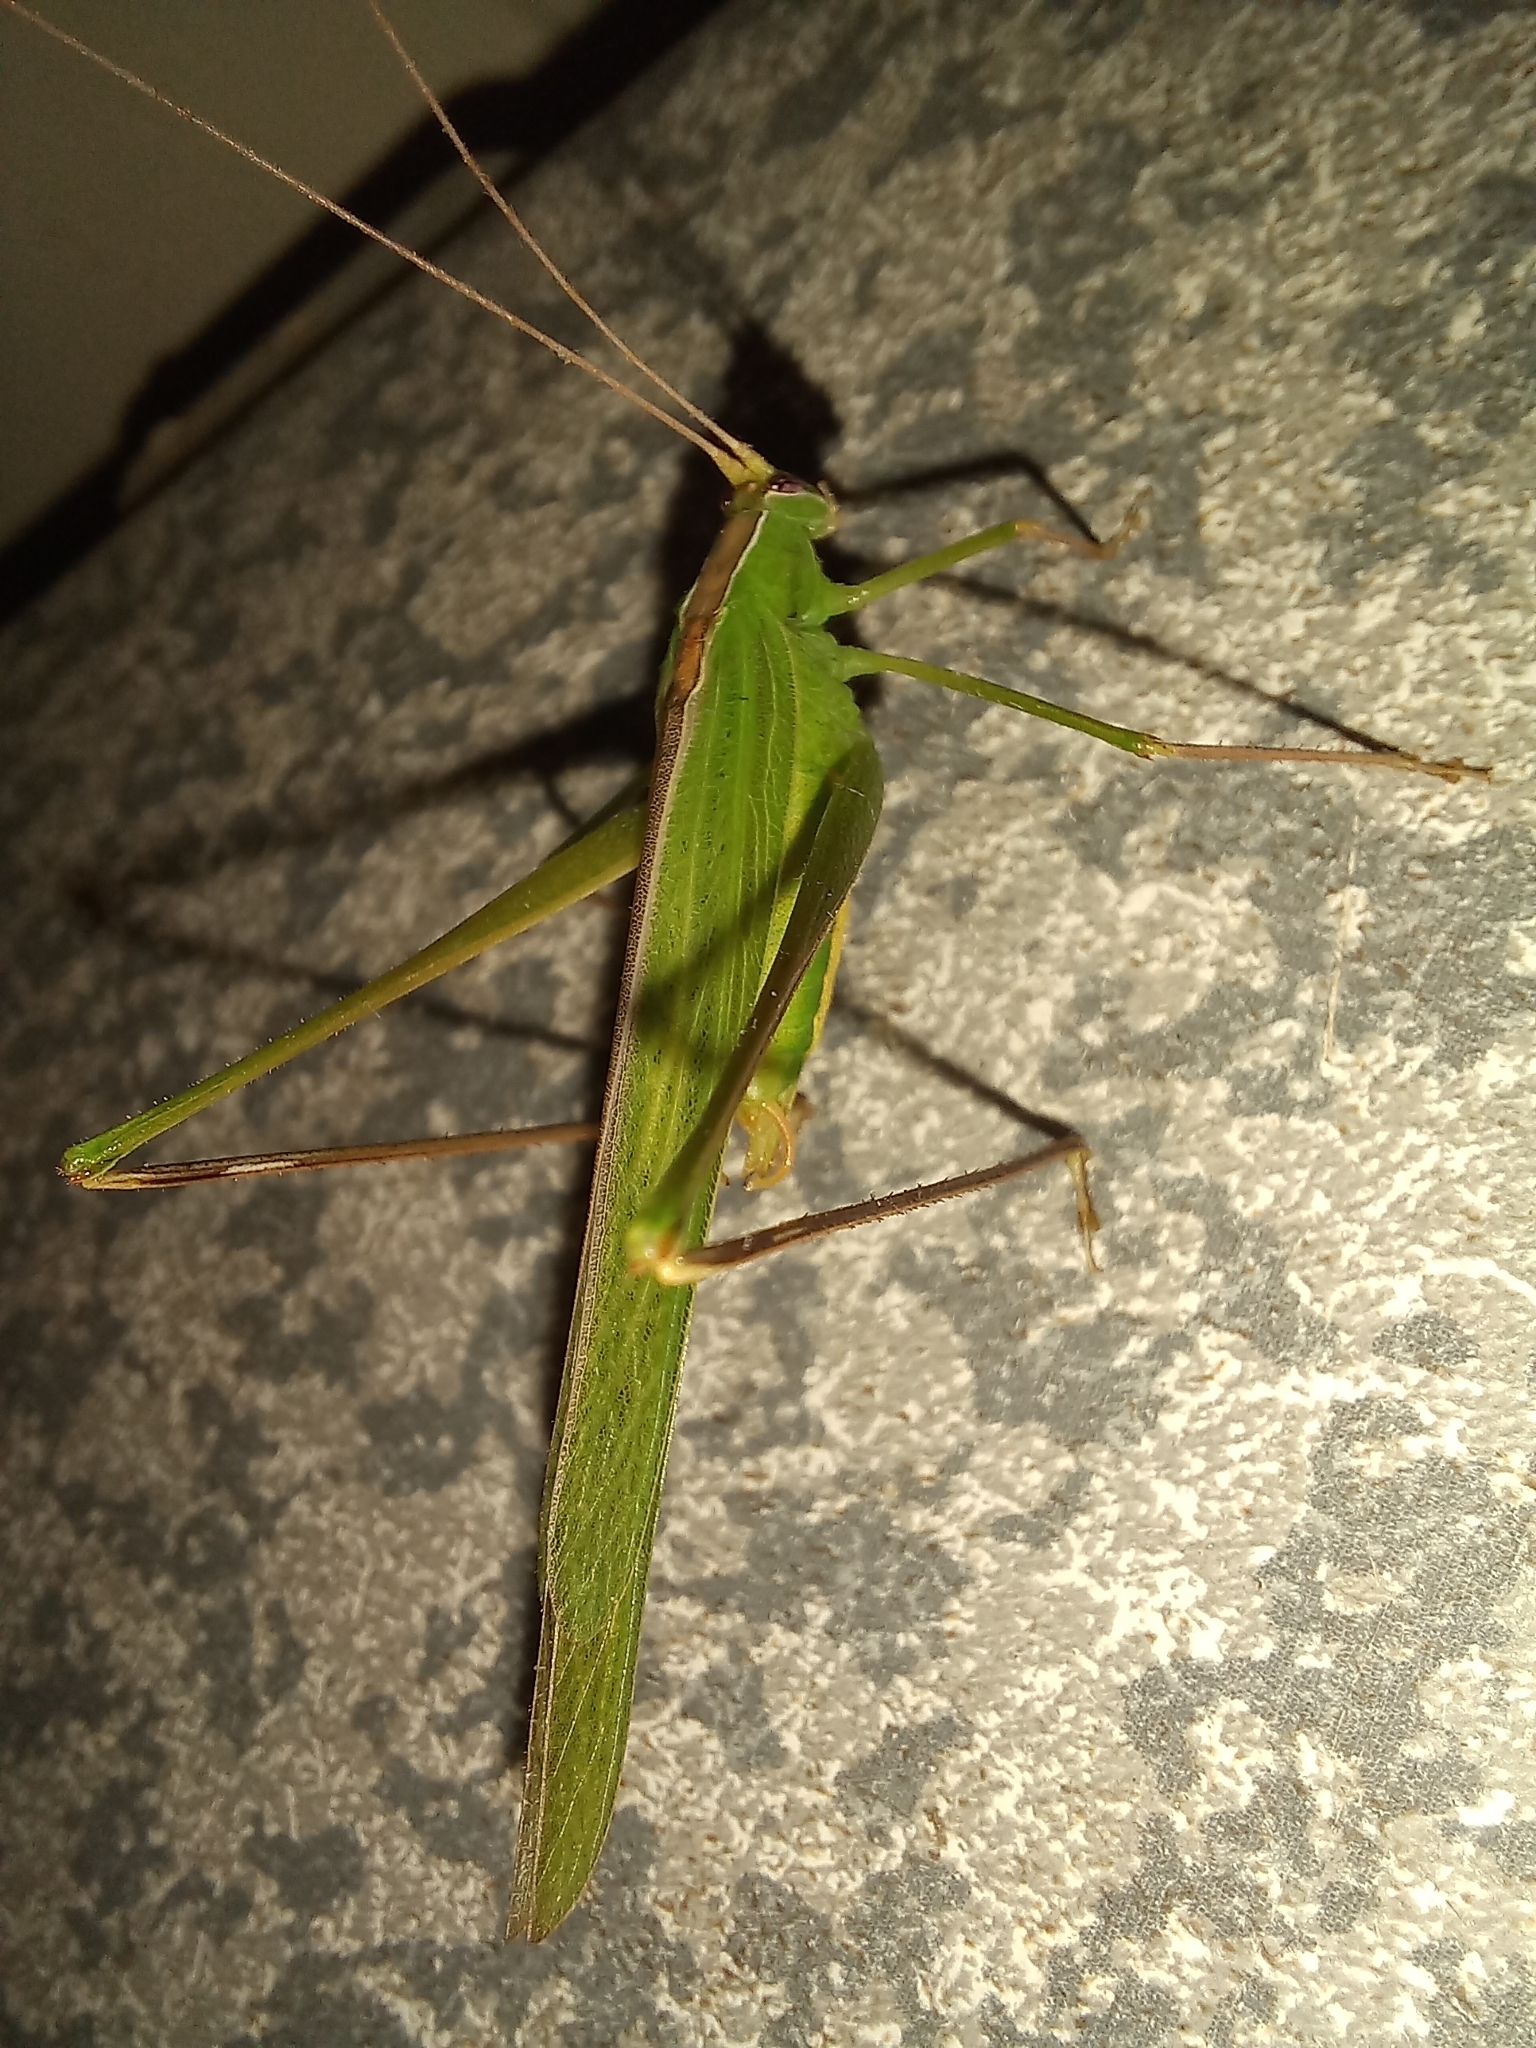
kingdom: Animalia
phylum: Arthropoda
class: Insecta
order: Orthoptera
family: Tettigoniidae
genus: Tylopsis
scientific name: Tylopsis continua
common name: Common grass katydid
